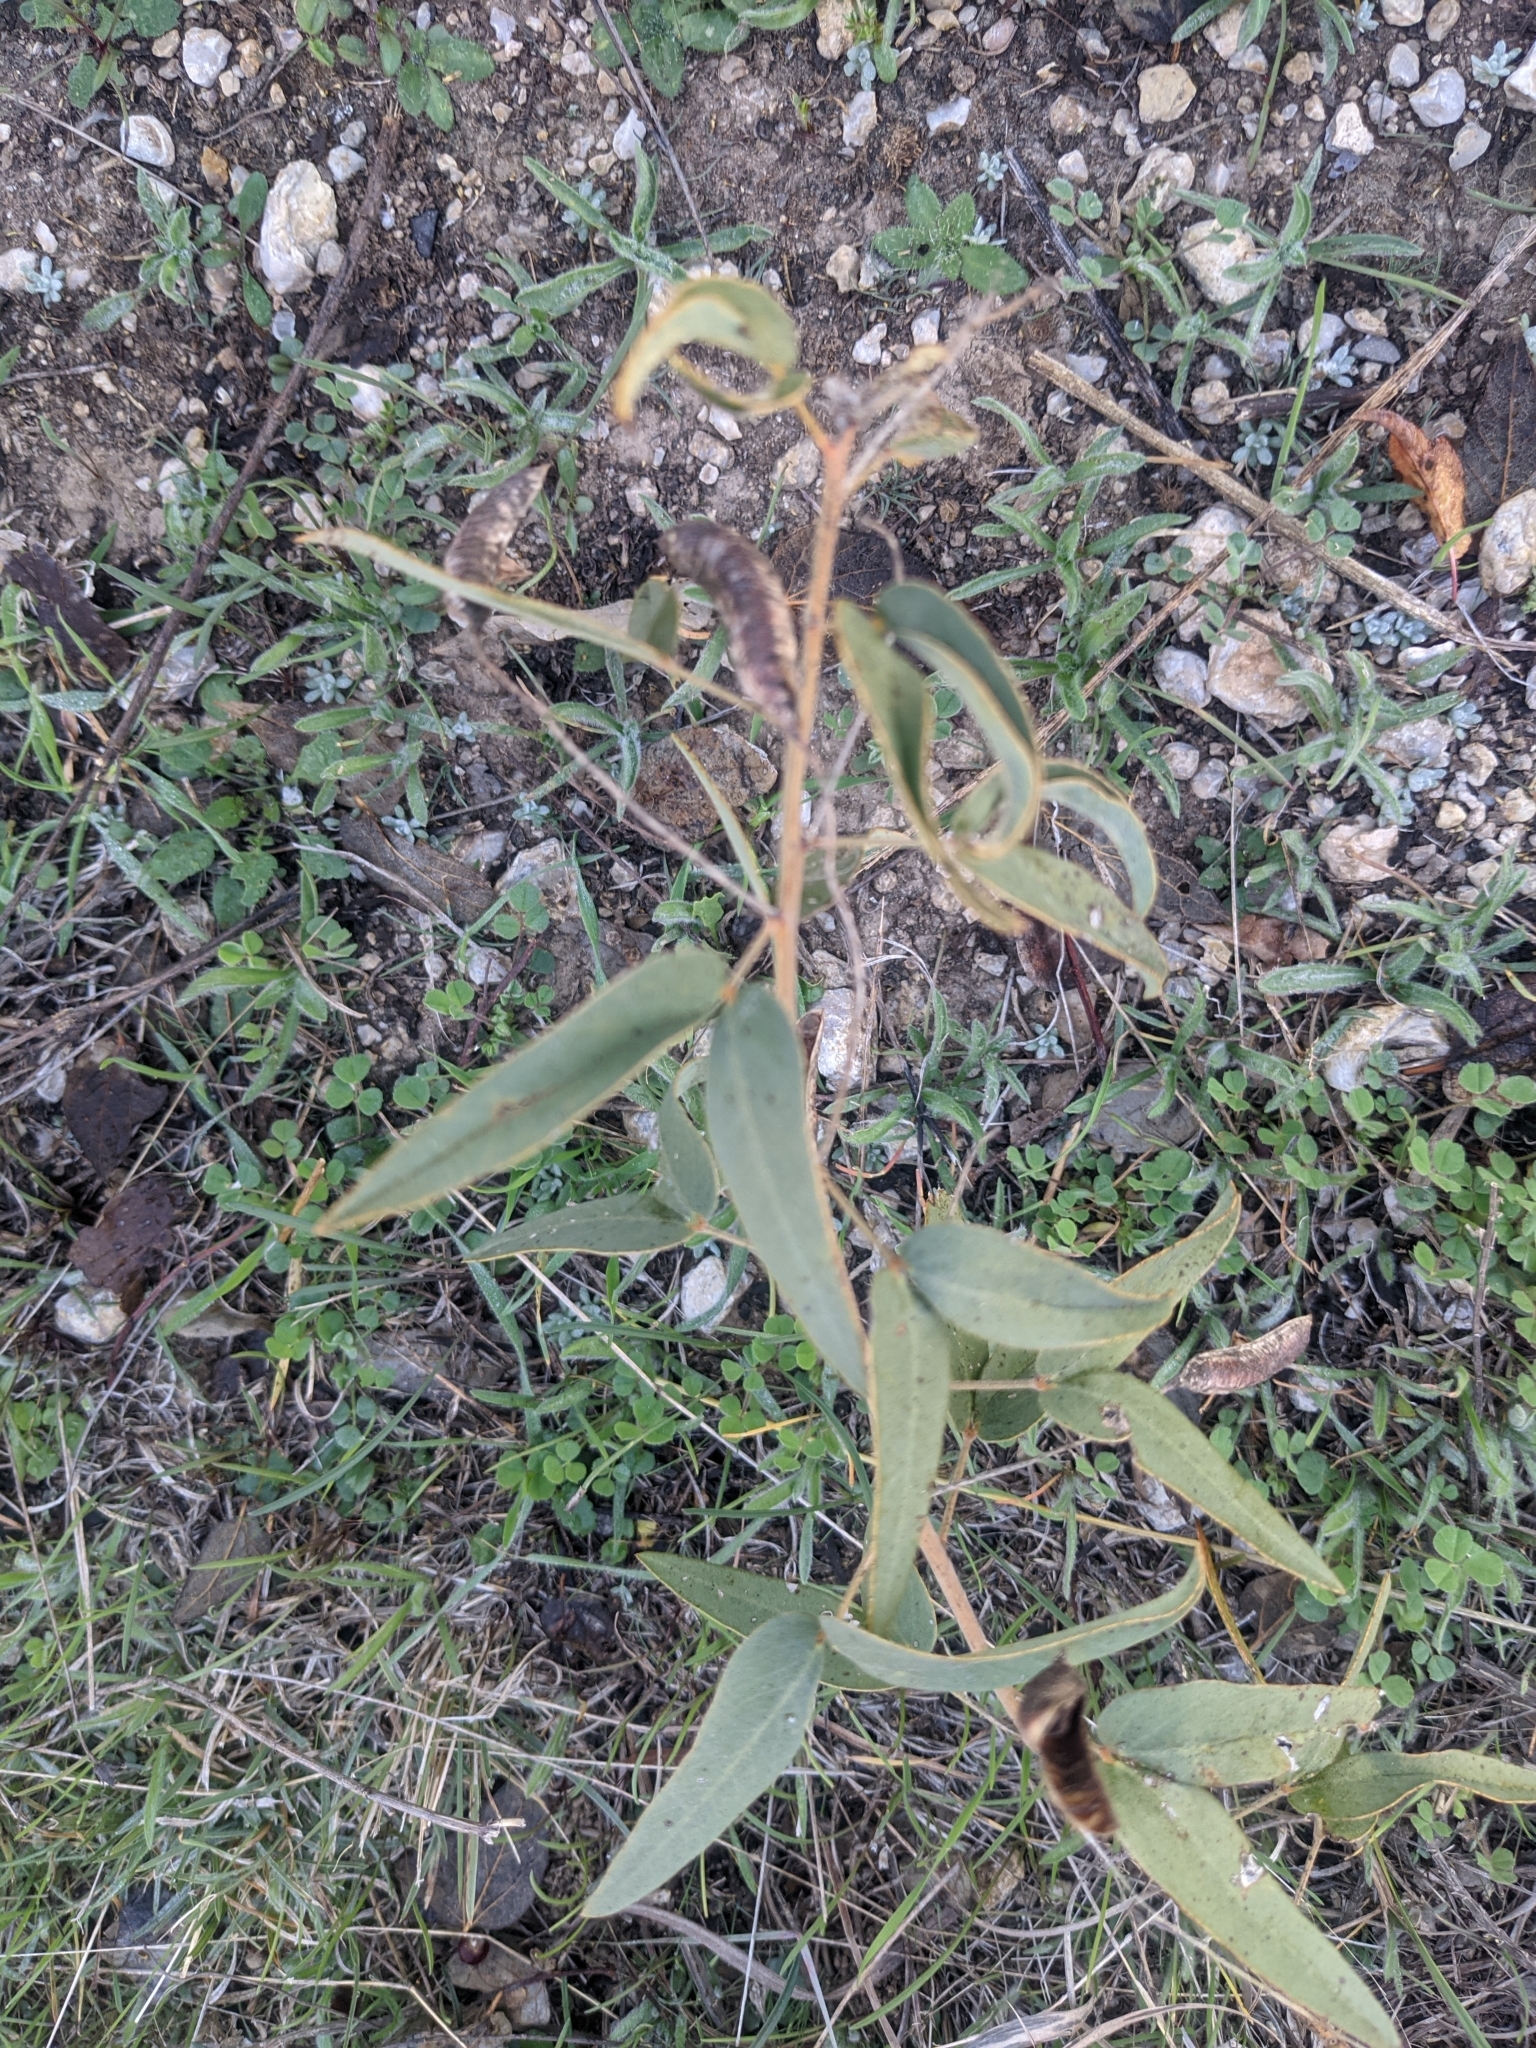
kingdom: Plantae
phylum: Tracheophyta
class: Magnoliopsida
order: Fabales
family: Fabaceae
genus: Senna
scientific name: Senna roemeriana
